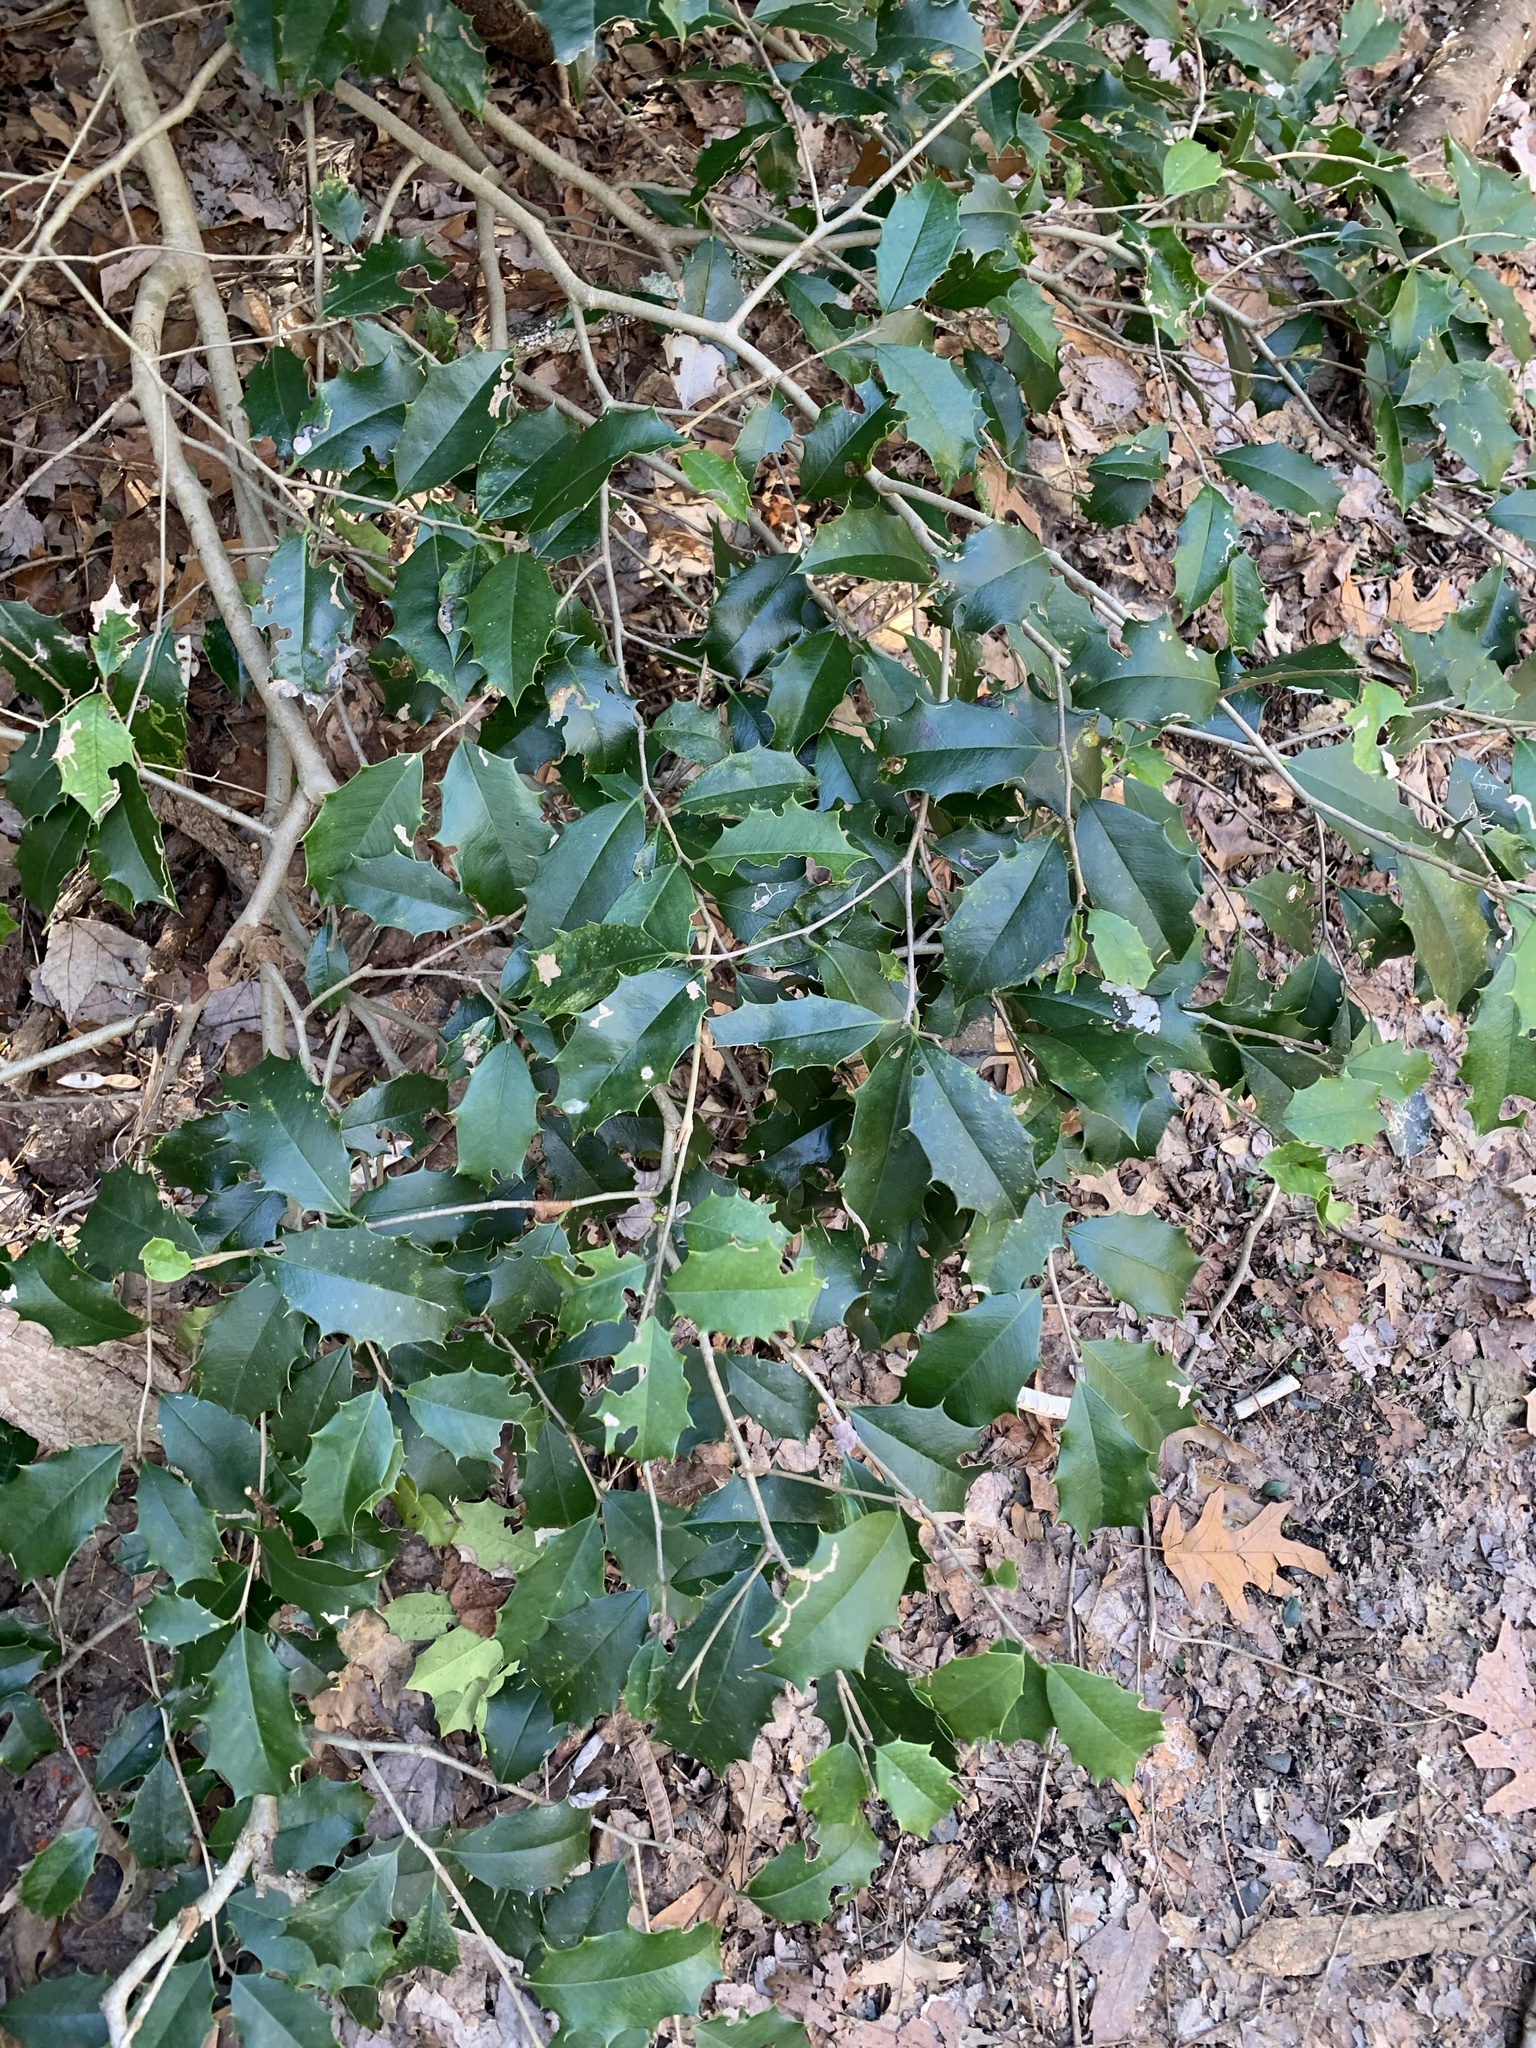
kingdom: Plantae
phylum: Tracheophyta
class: Magnoliopsida
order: Aquifoliales
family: Aquifoliaceae
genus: Ilex
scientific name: Ilex opaca
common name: American holly
